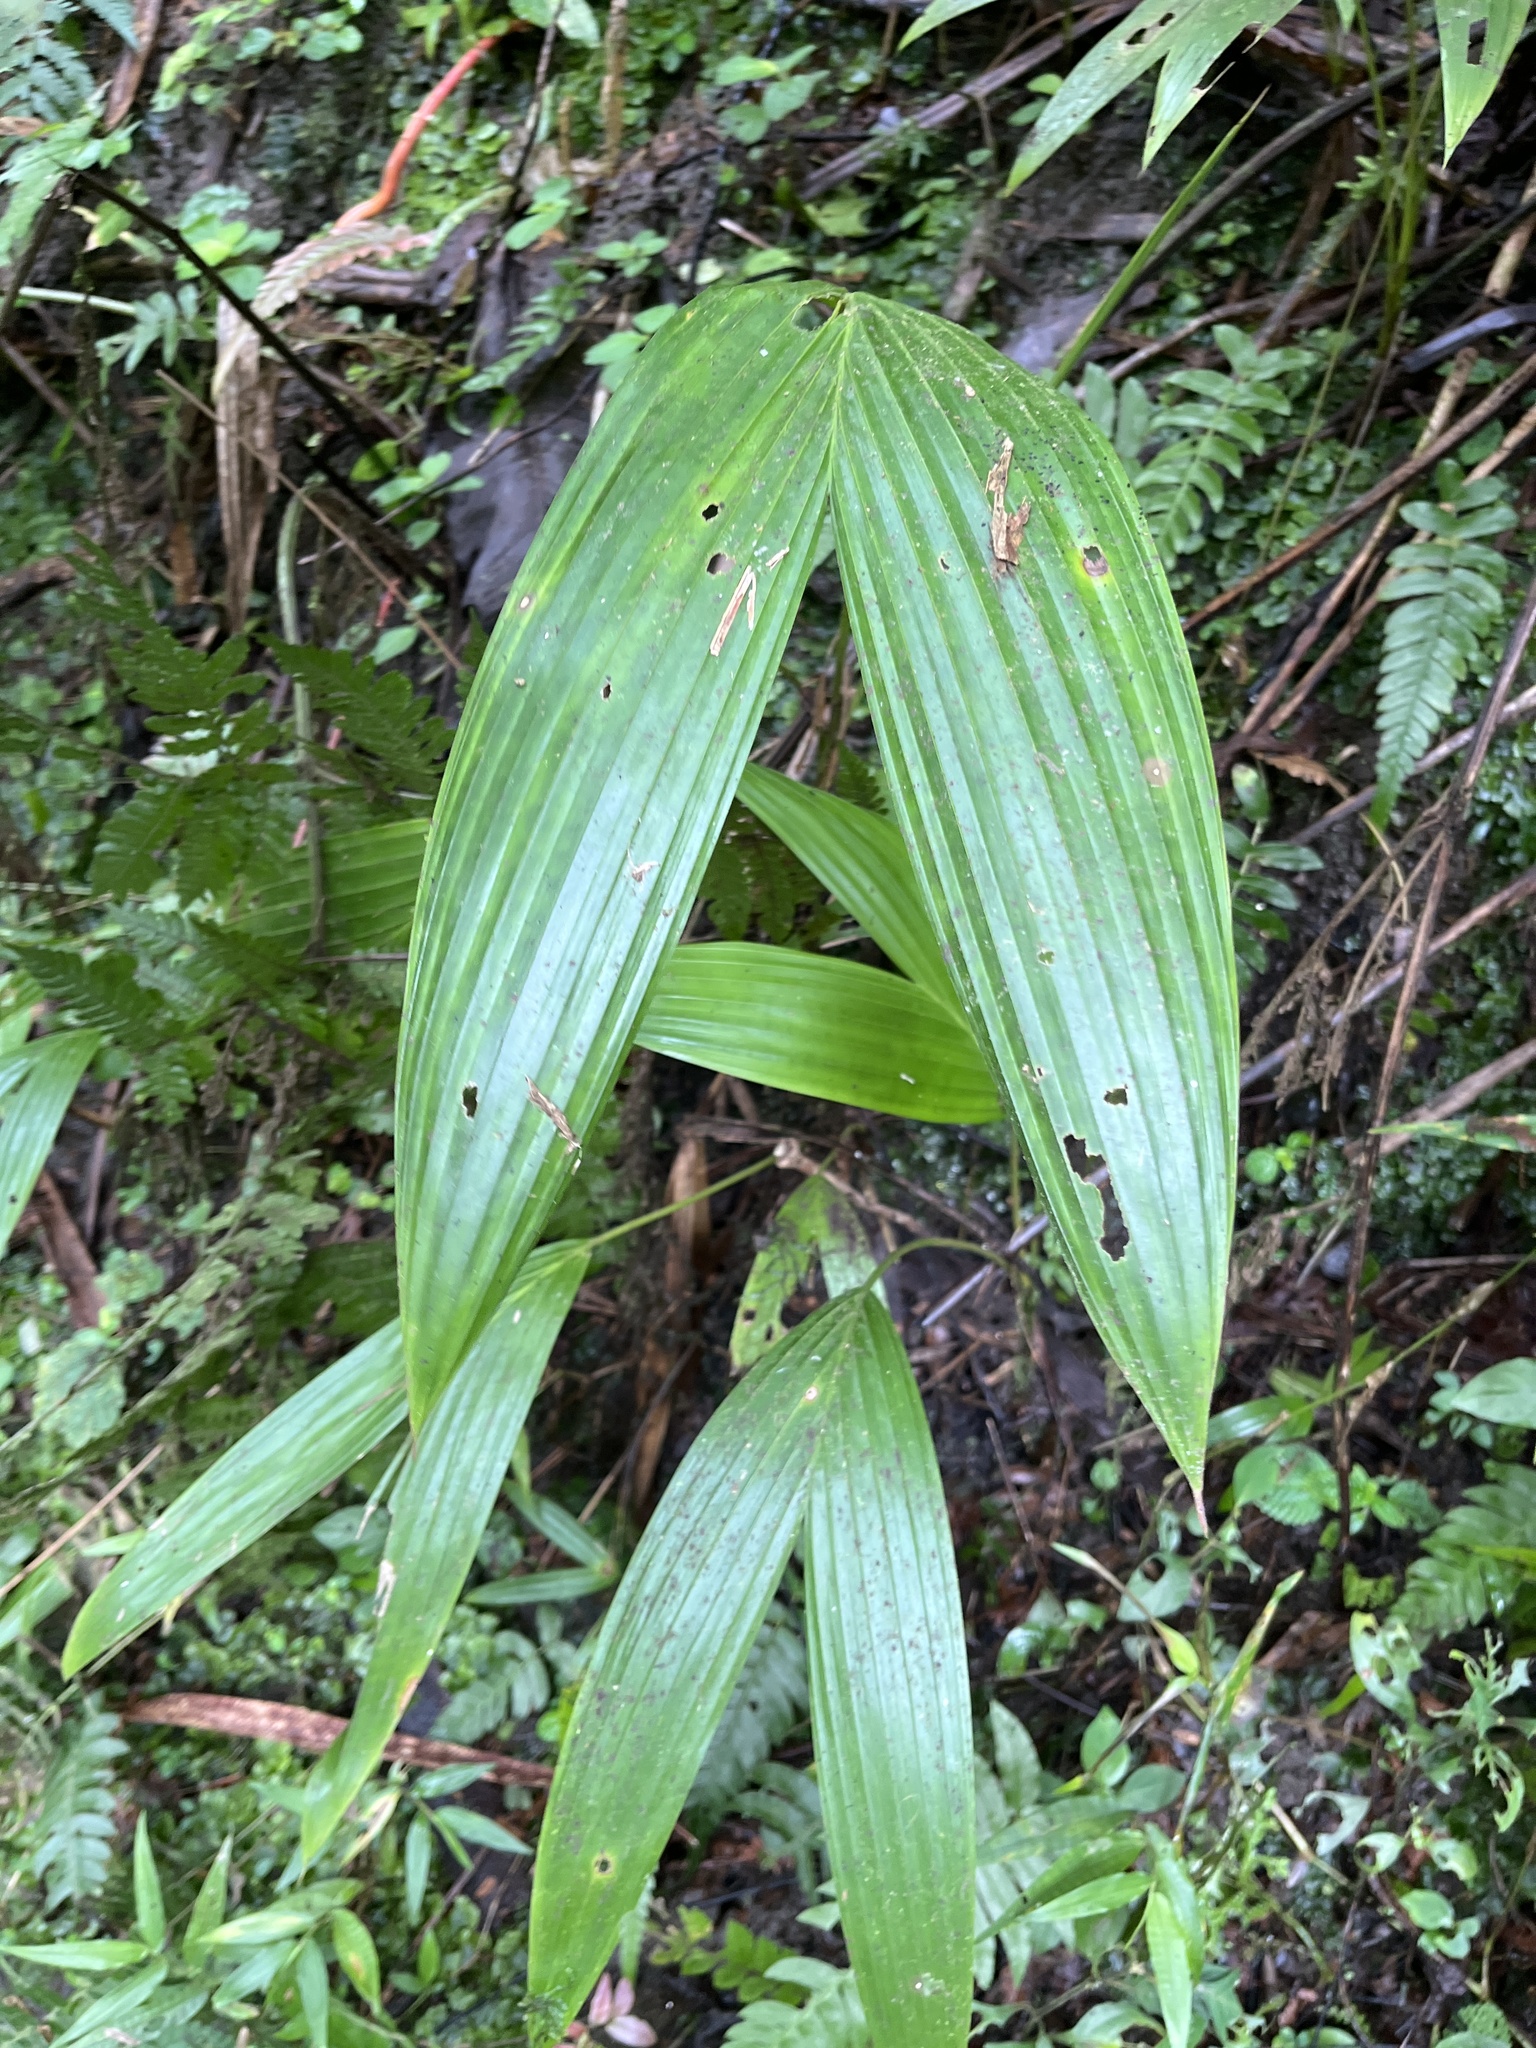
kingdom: Plantae
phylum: Tracheophyta
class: Liliopsida
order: Arecales
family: Arecaceae
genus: Prestoea
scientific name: Prestoea acuminata
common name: Sierran palm
